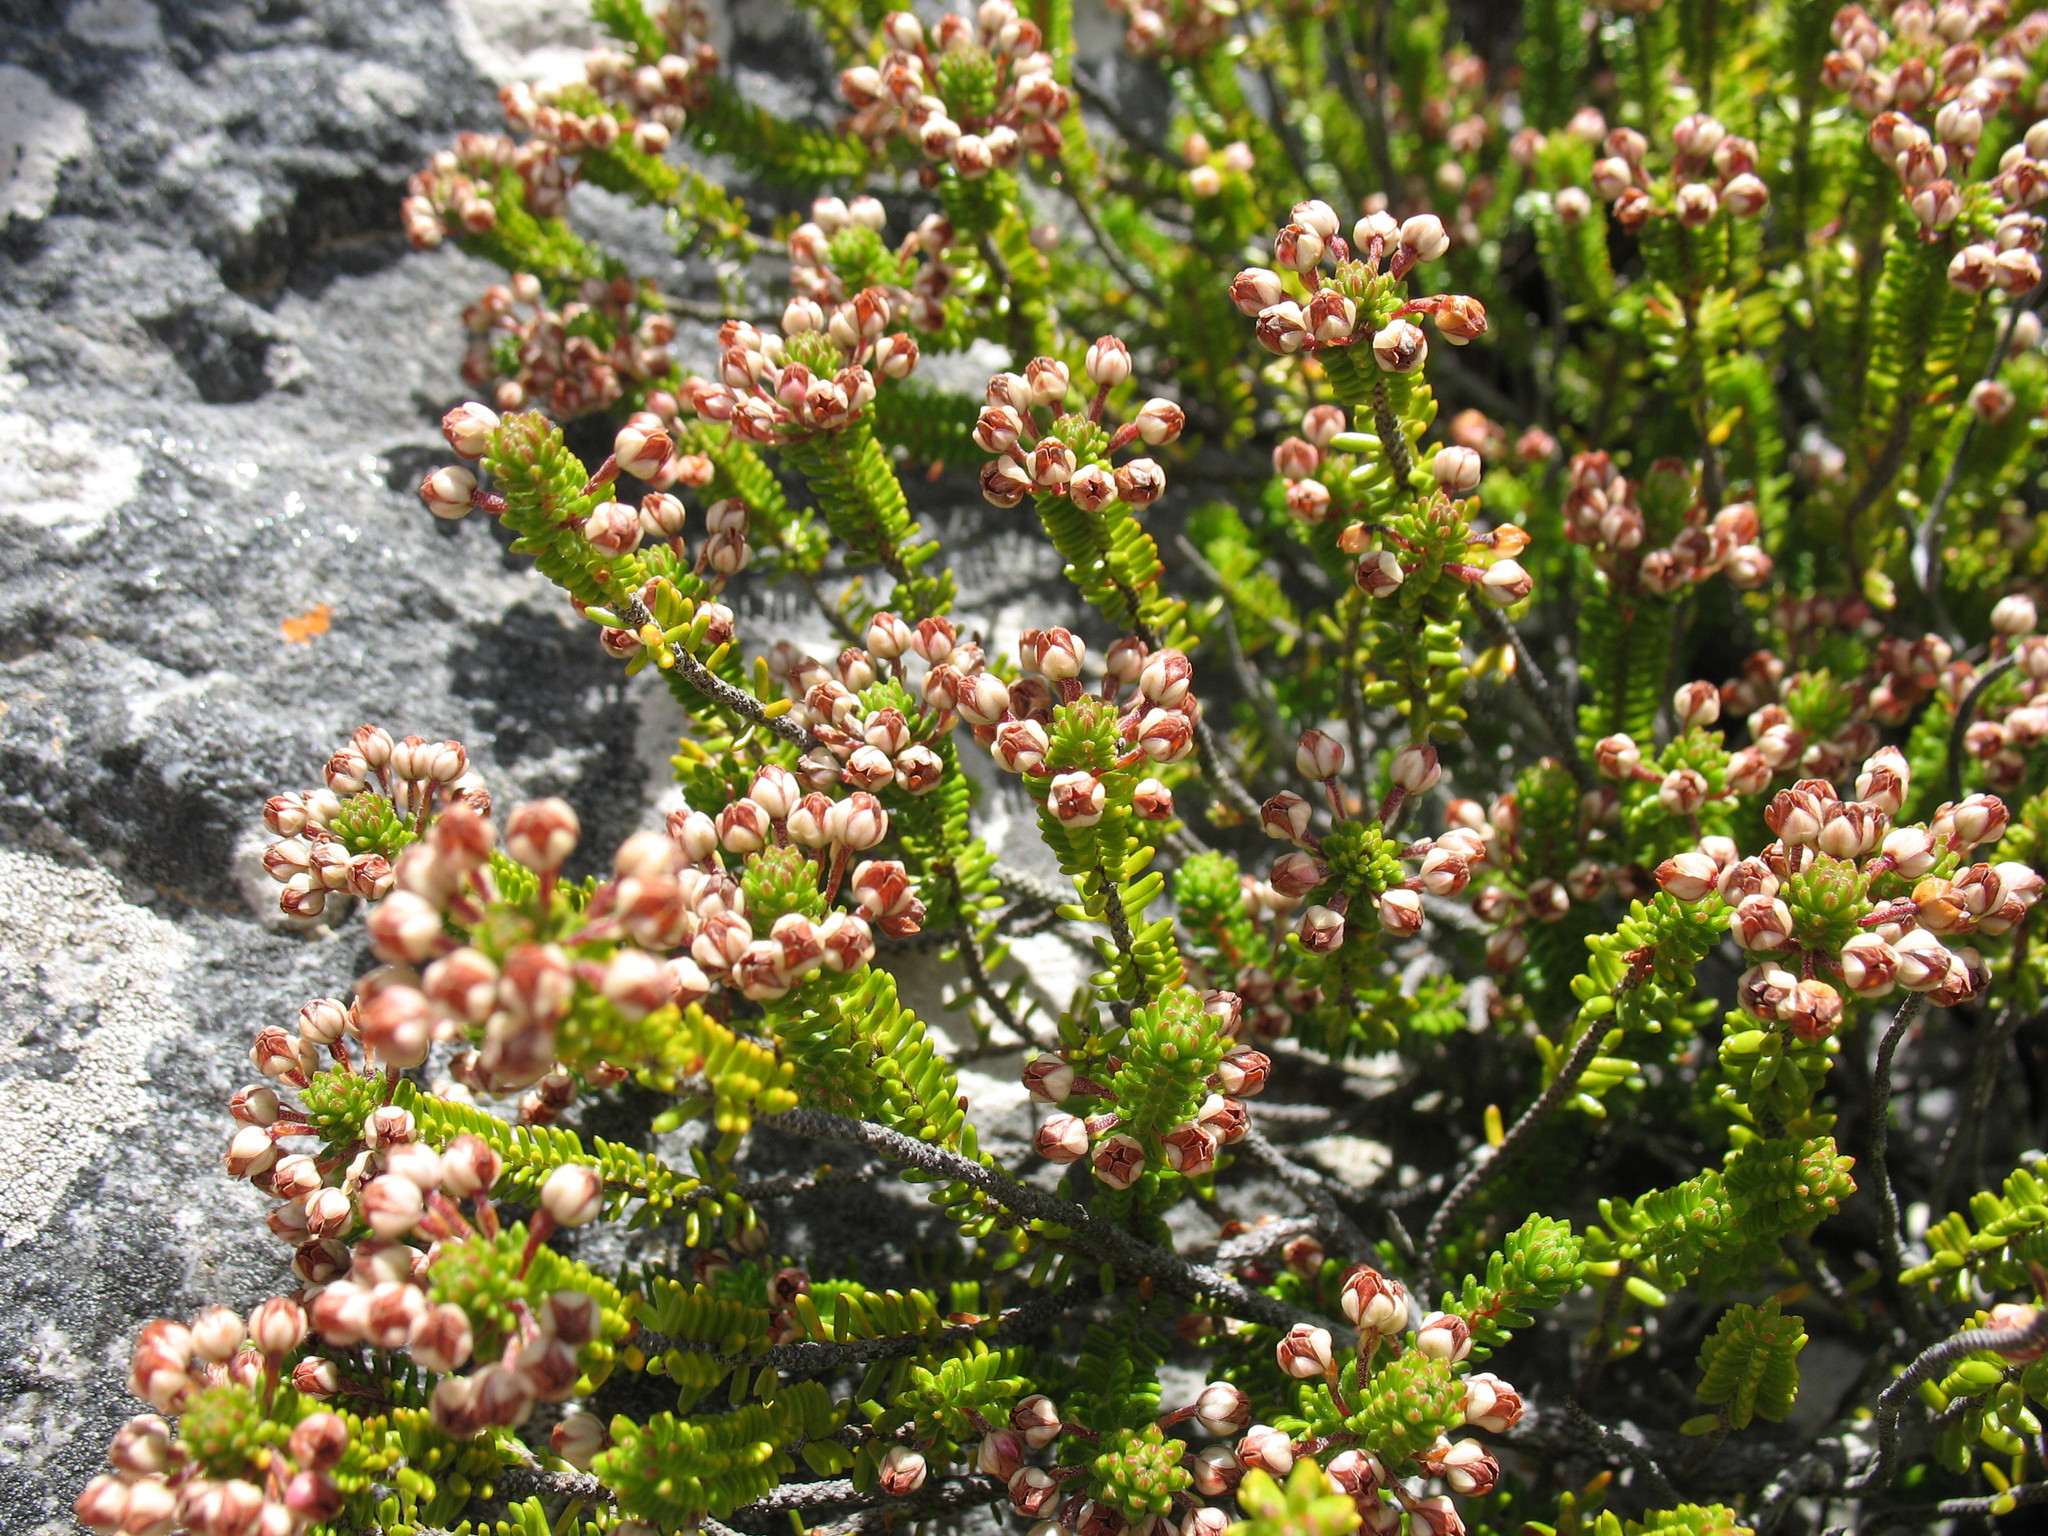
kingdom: Plantae
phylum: Tracheophyta
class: Magnoliopsida
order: Ericales
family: Ericaceae
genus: Erica
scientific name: Erica stokoei
